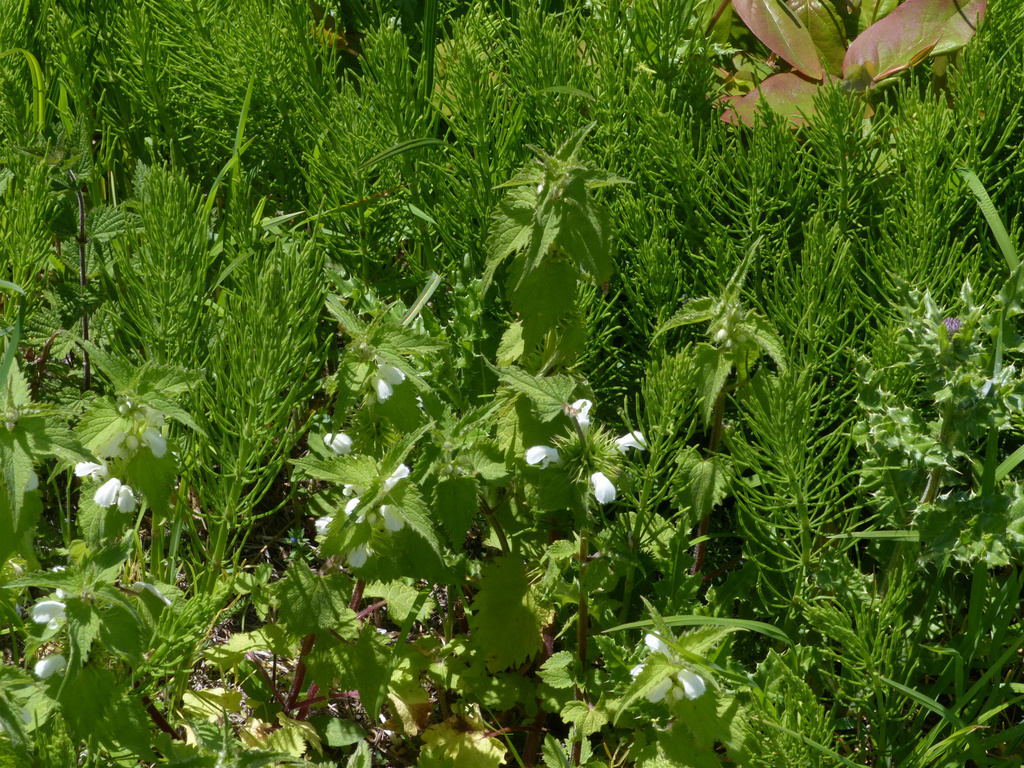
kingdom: Plantae
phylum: Tracheophyta
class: Magnoliopsida
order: Lamiales
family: Lamiaceae
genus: Lamium
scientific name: Lamium album
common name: White dead-nettle
